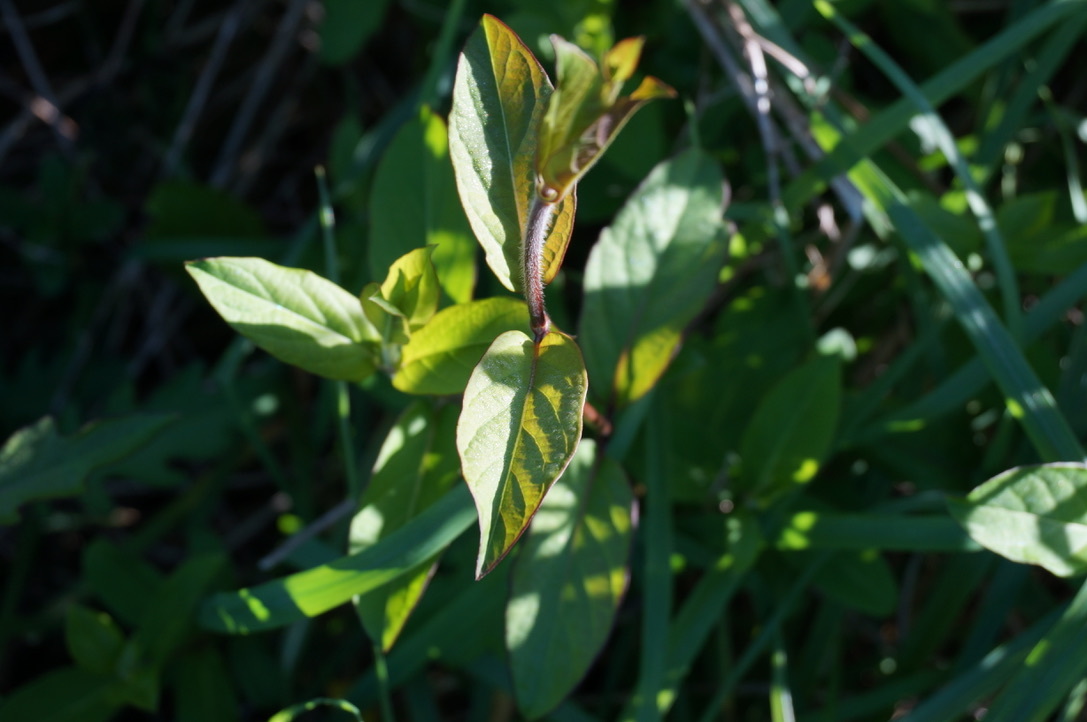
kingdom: Plantae
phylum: Tracheophyta
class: Magnoliopsida
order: Dipsacales
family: Caprifoliaceae
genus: Lonicera
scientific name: Lonicera japonica
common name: Japanese honeysuckle
